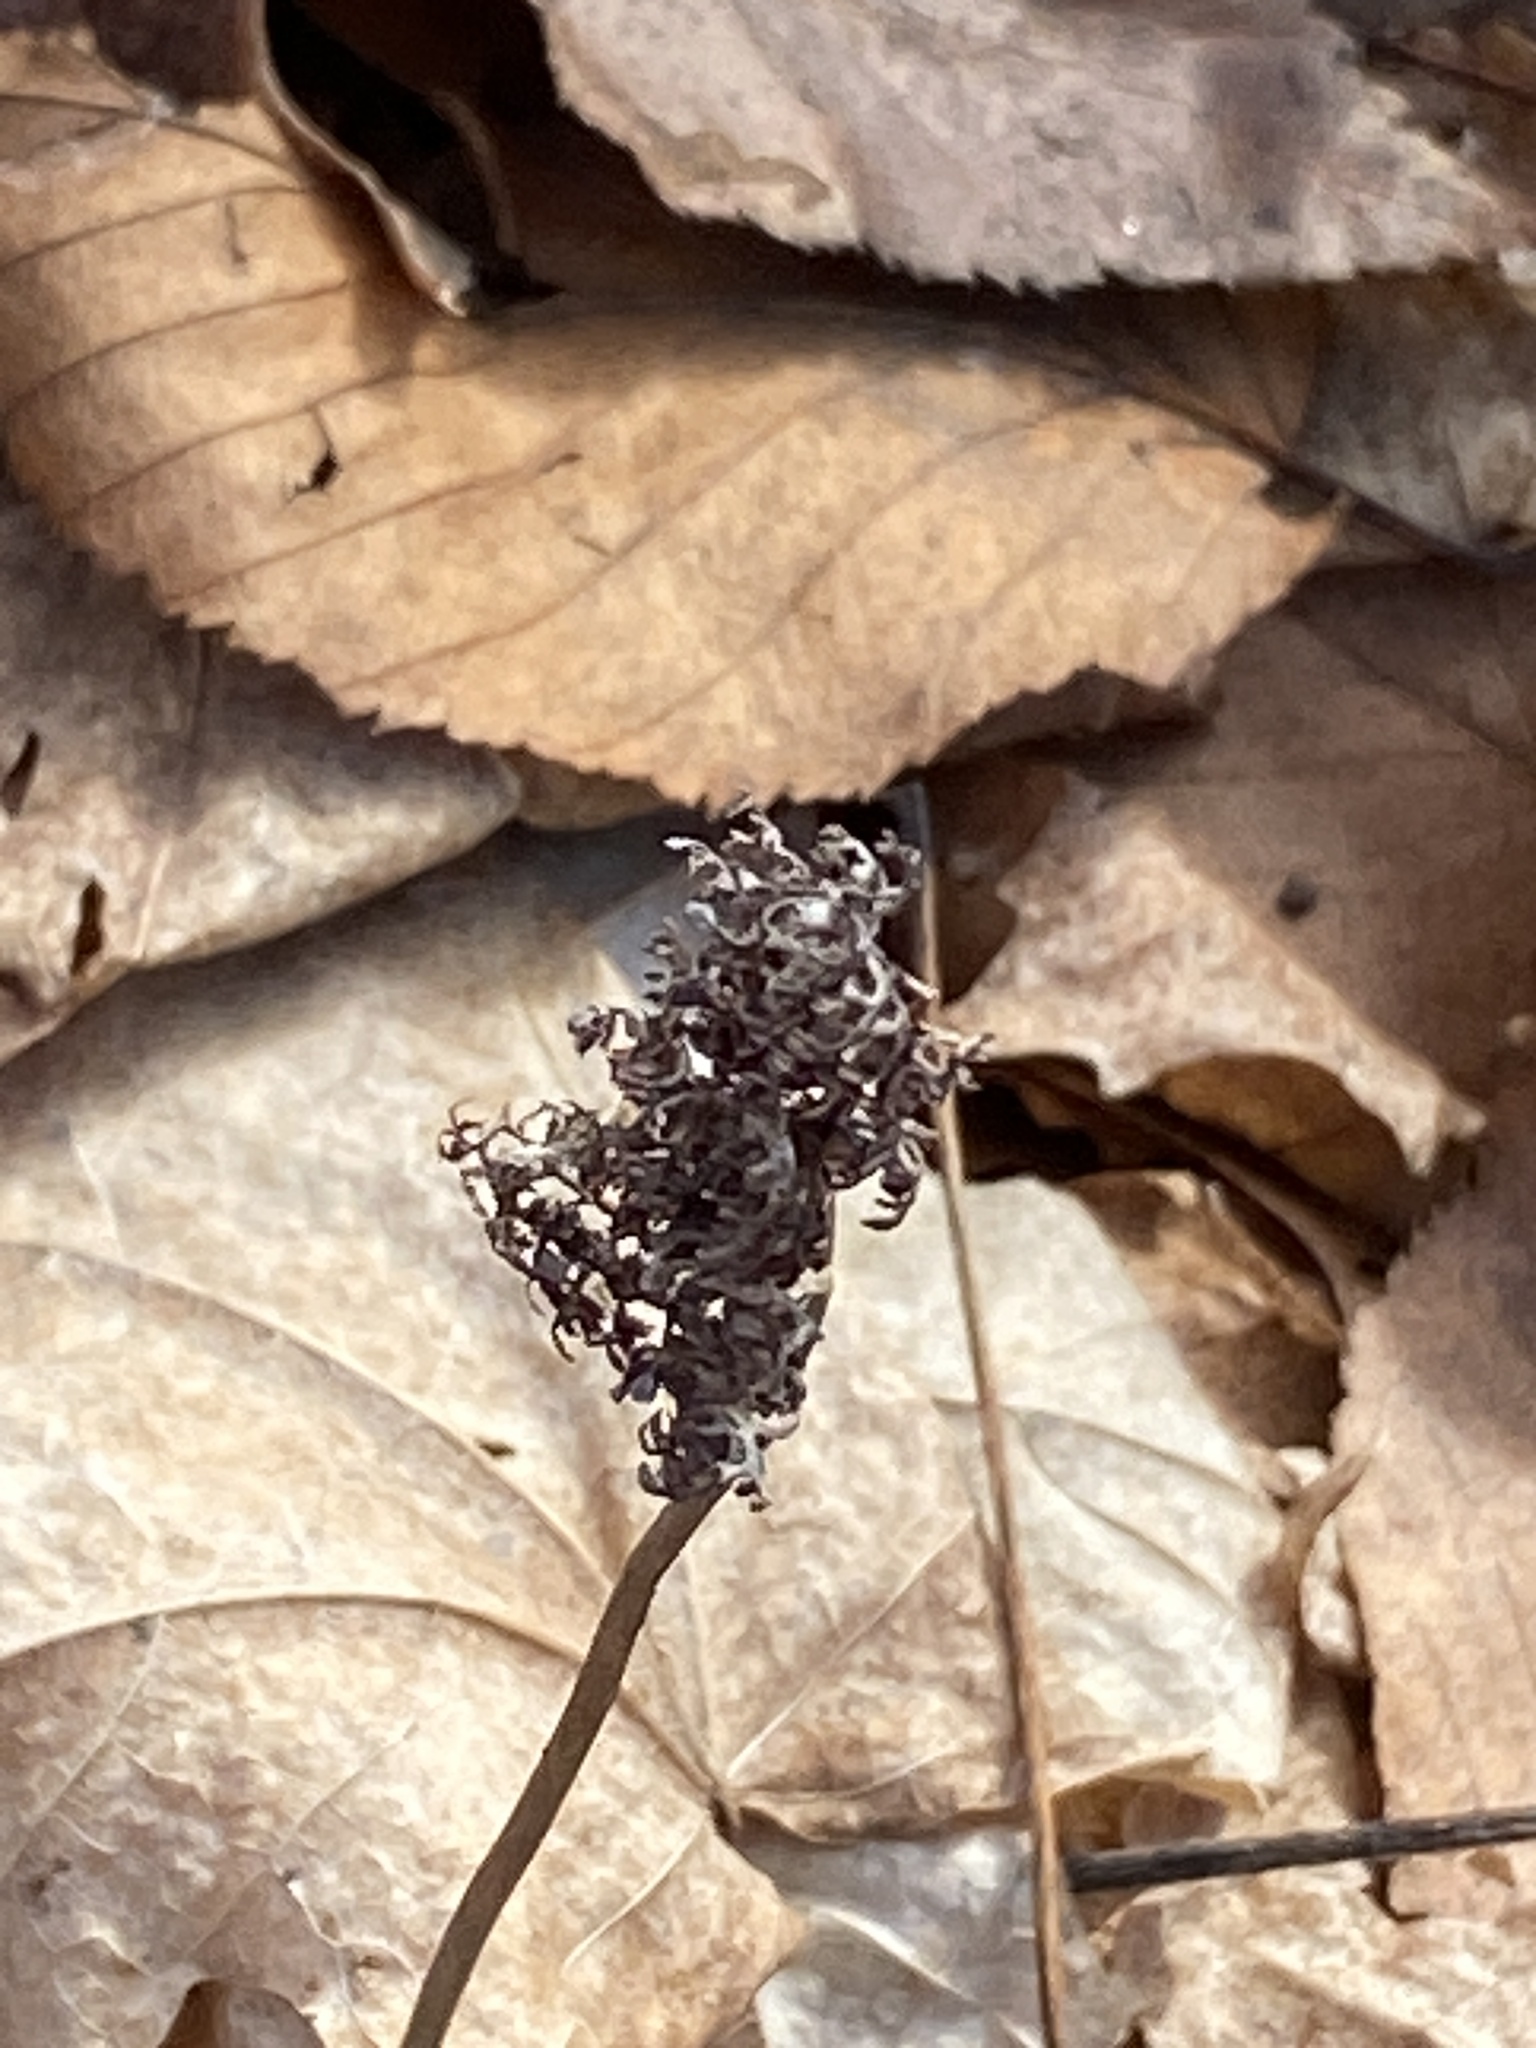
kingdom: Plantae
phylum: Tracheophyta
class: Polypodiopsida
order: Polypodiales
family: Onocleaceae
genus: Onoclea
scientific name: Onoclea sensibilis
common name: Sensitive fern
